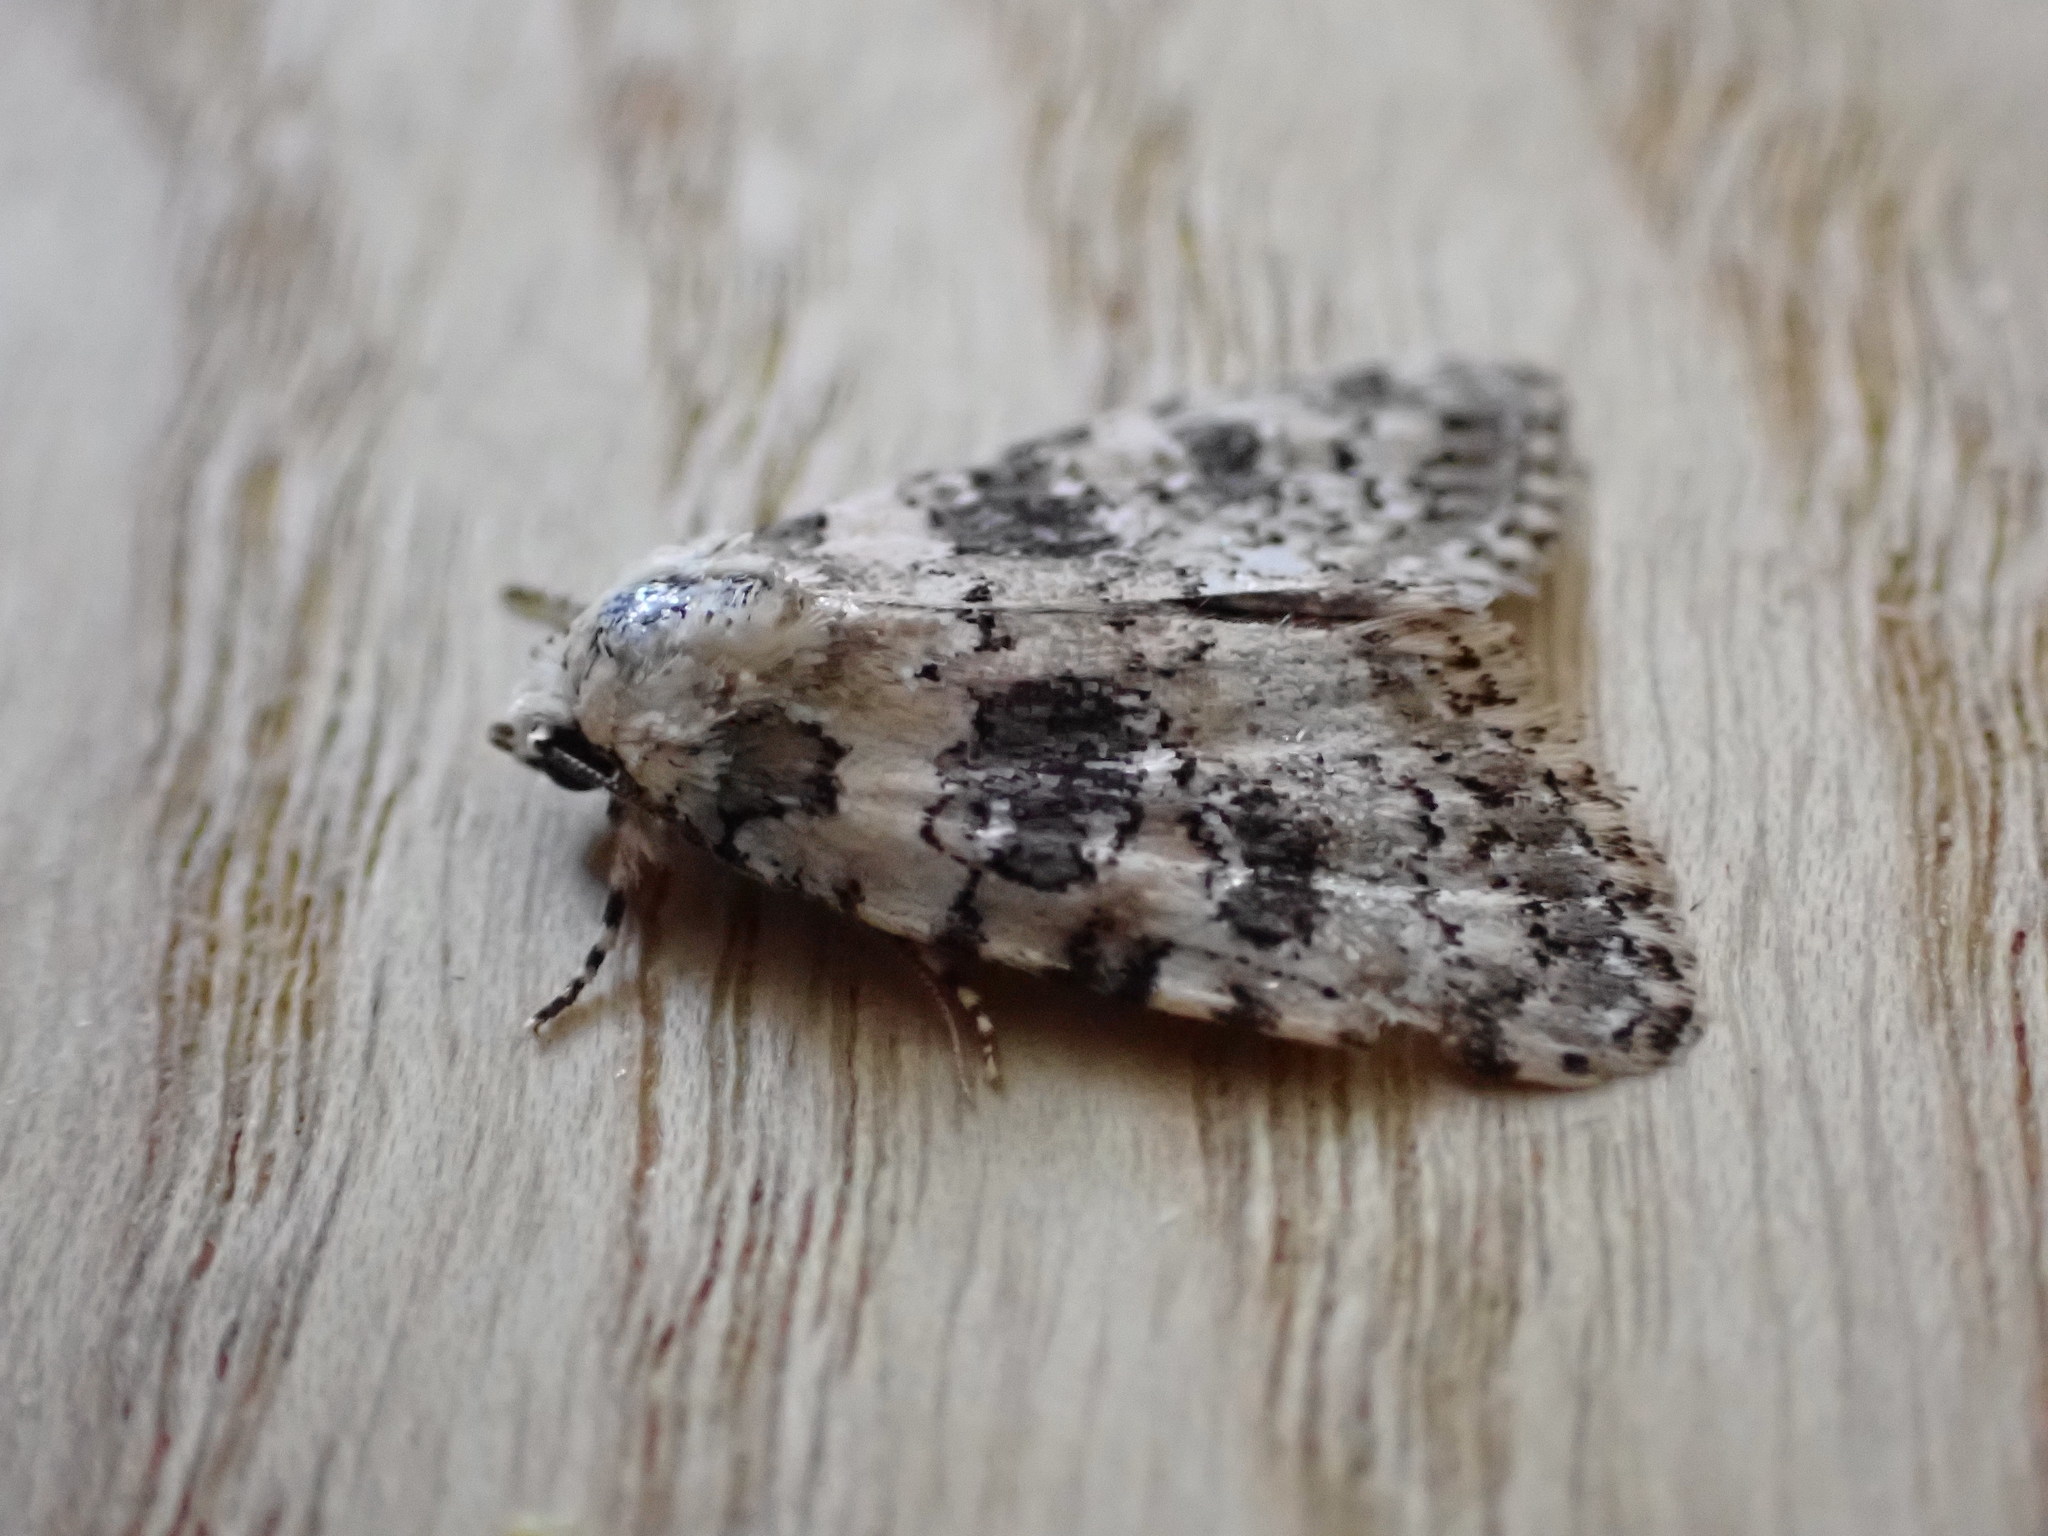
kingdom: Animalia
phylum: Arthropoda
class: Insecta
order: Lepidoptera
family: Noctuidae
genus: Bryophila
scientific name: Bryophila domestica
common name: Marbled beauty
